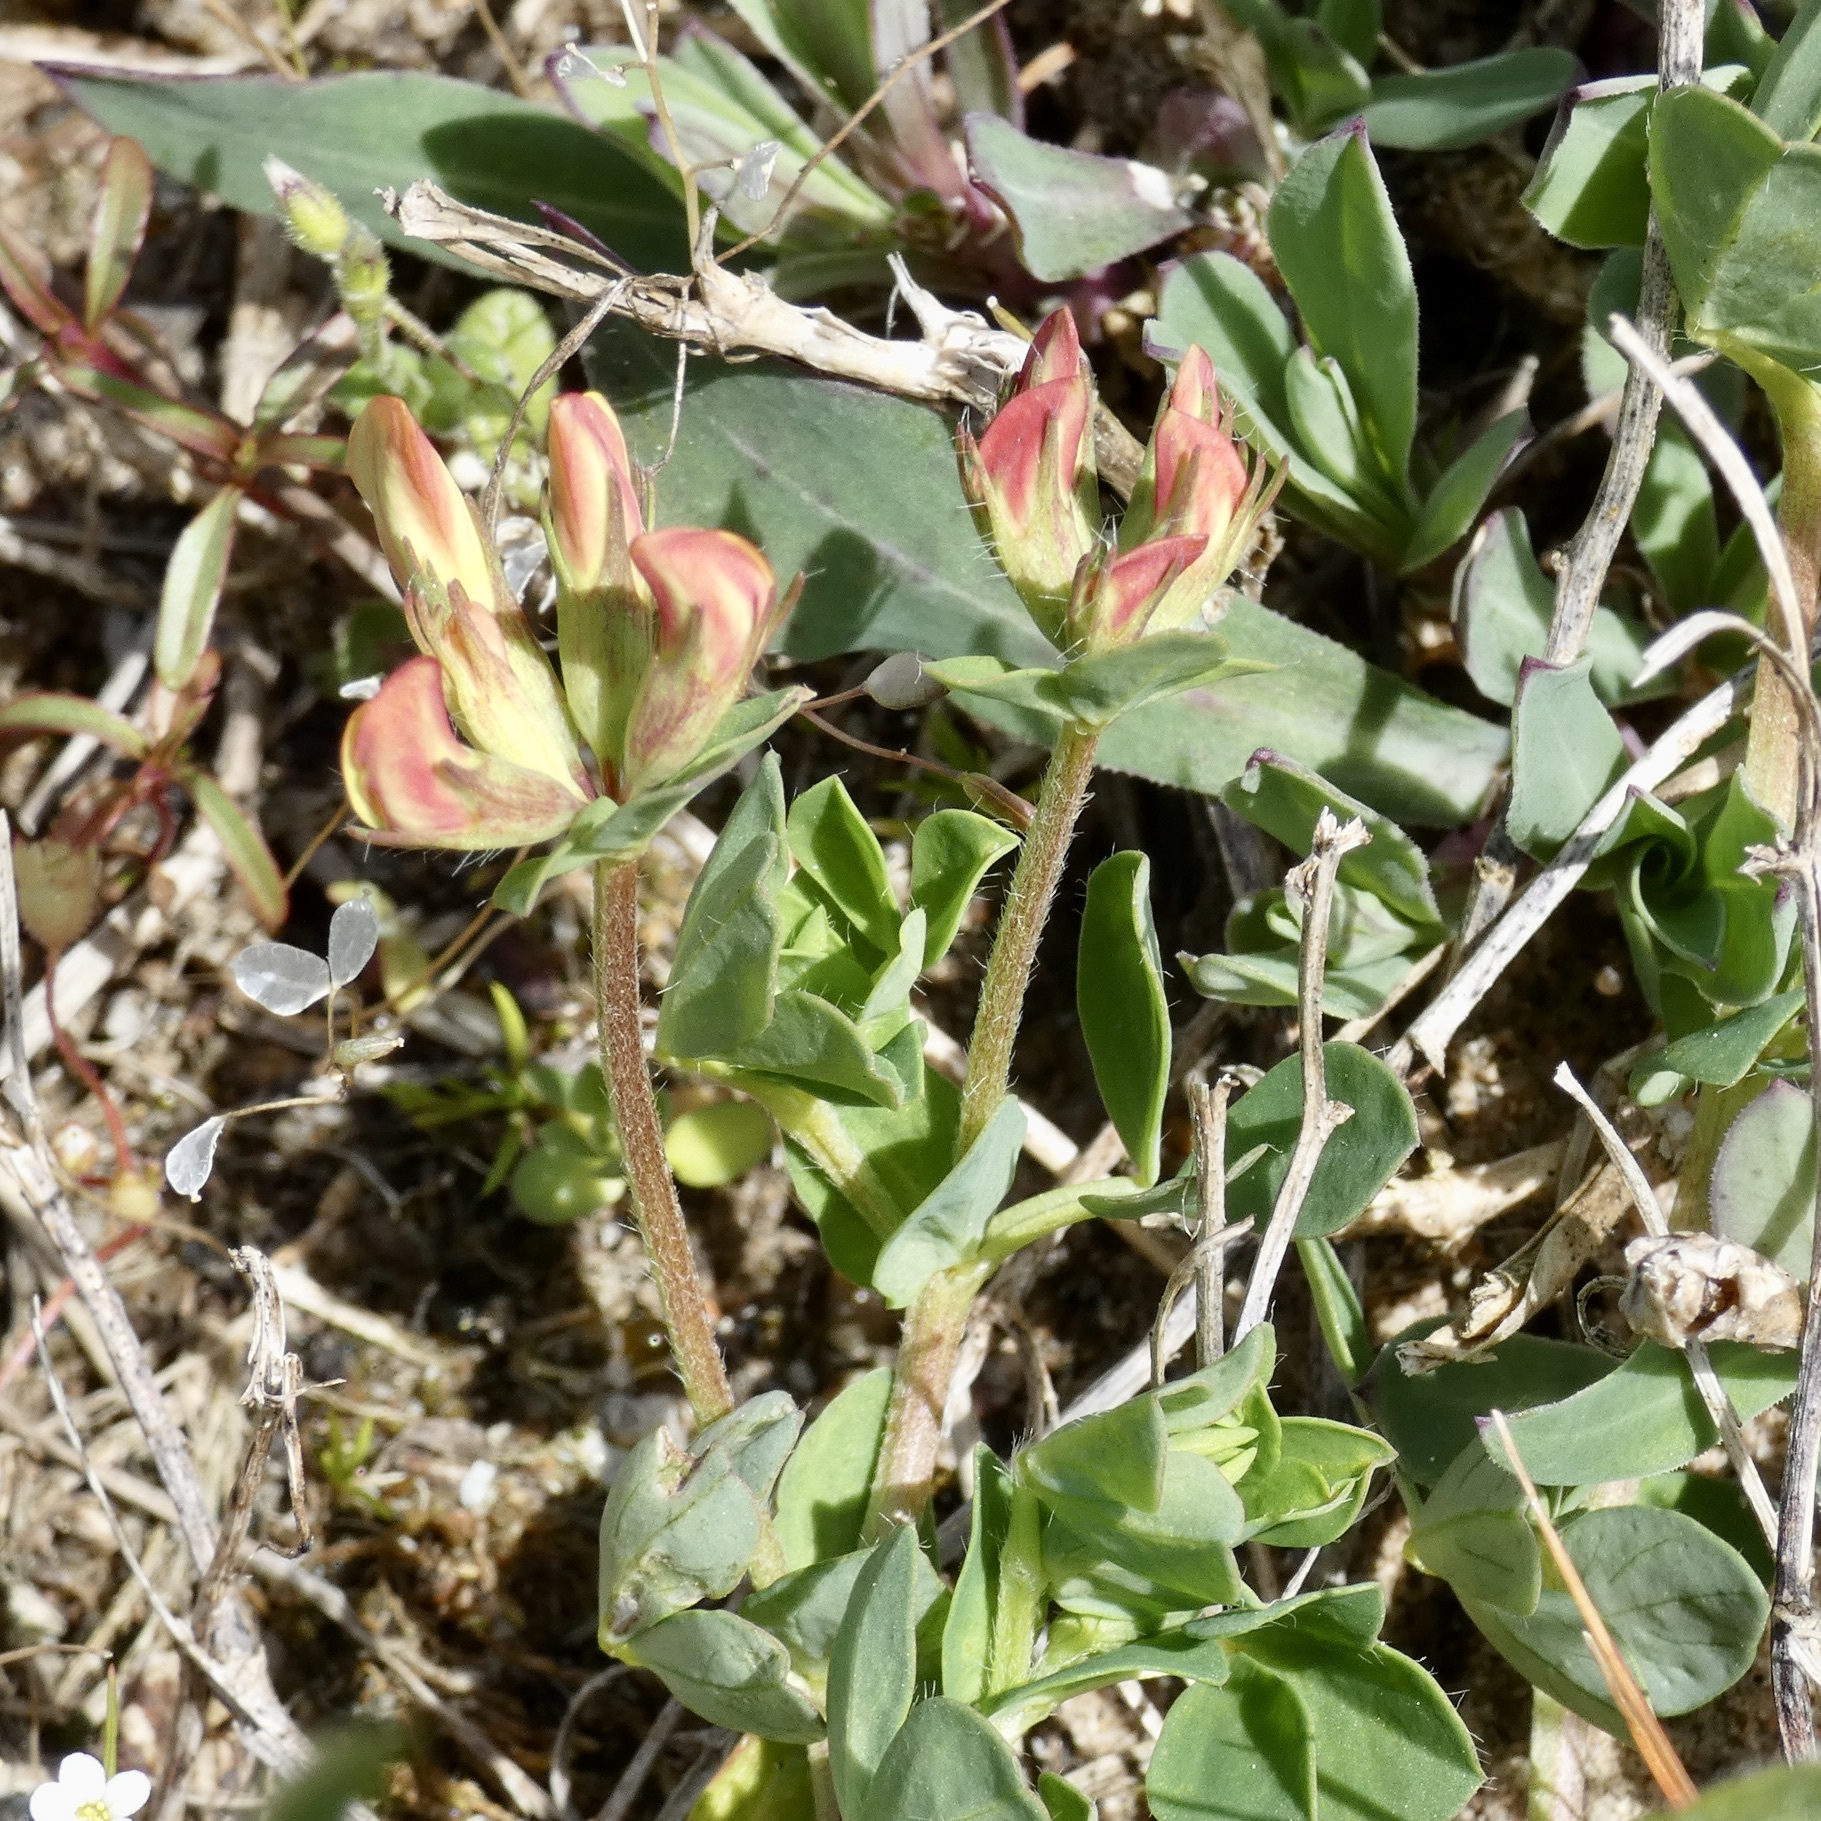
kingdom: Plantae
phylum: Tracheophyta
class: Magnoliopsida
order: Fabales
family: Fabaceae
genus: Lotus
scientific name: Lotus corniculatus
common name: Common bird's-foot-trefoil
